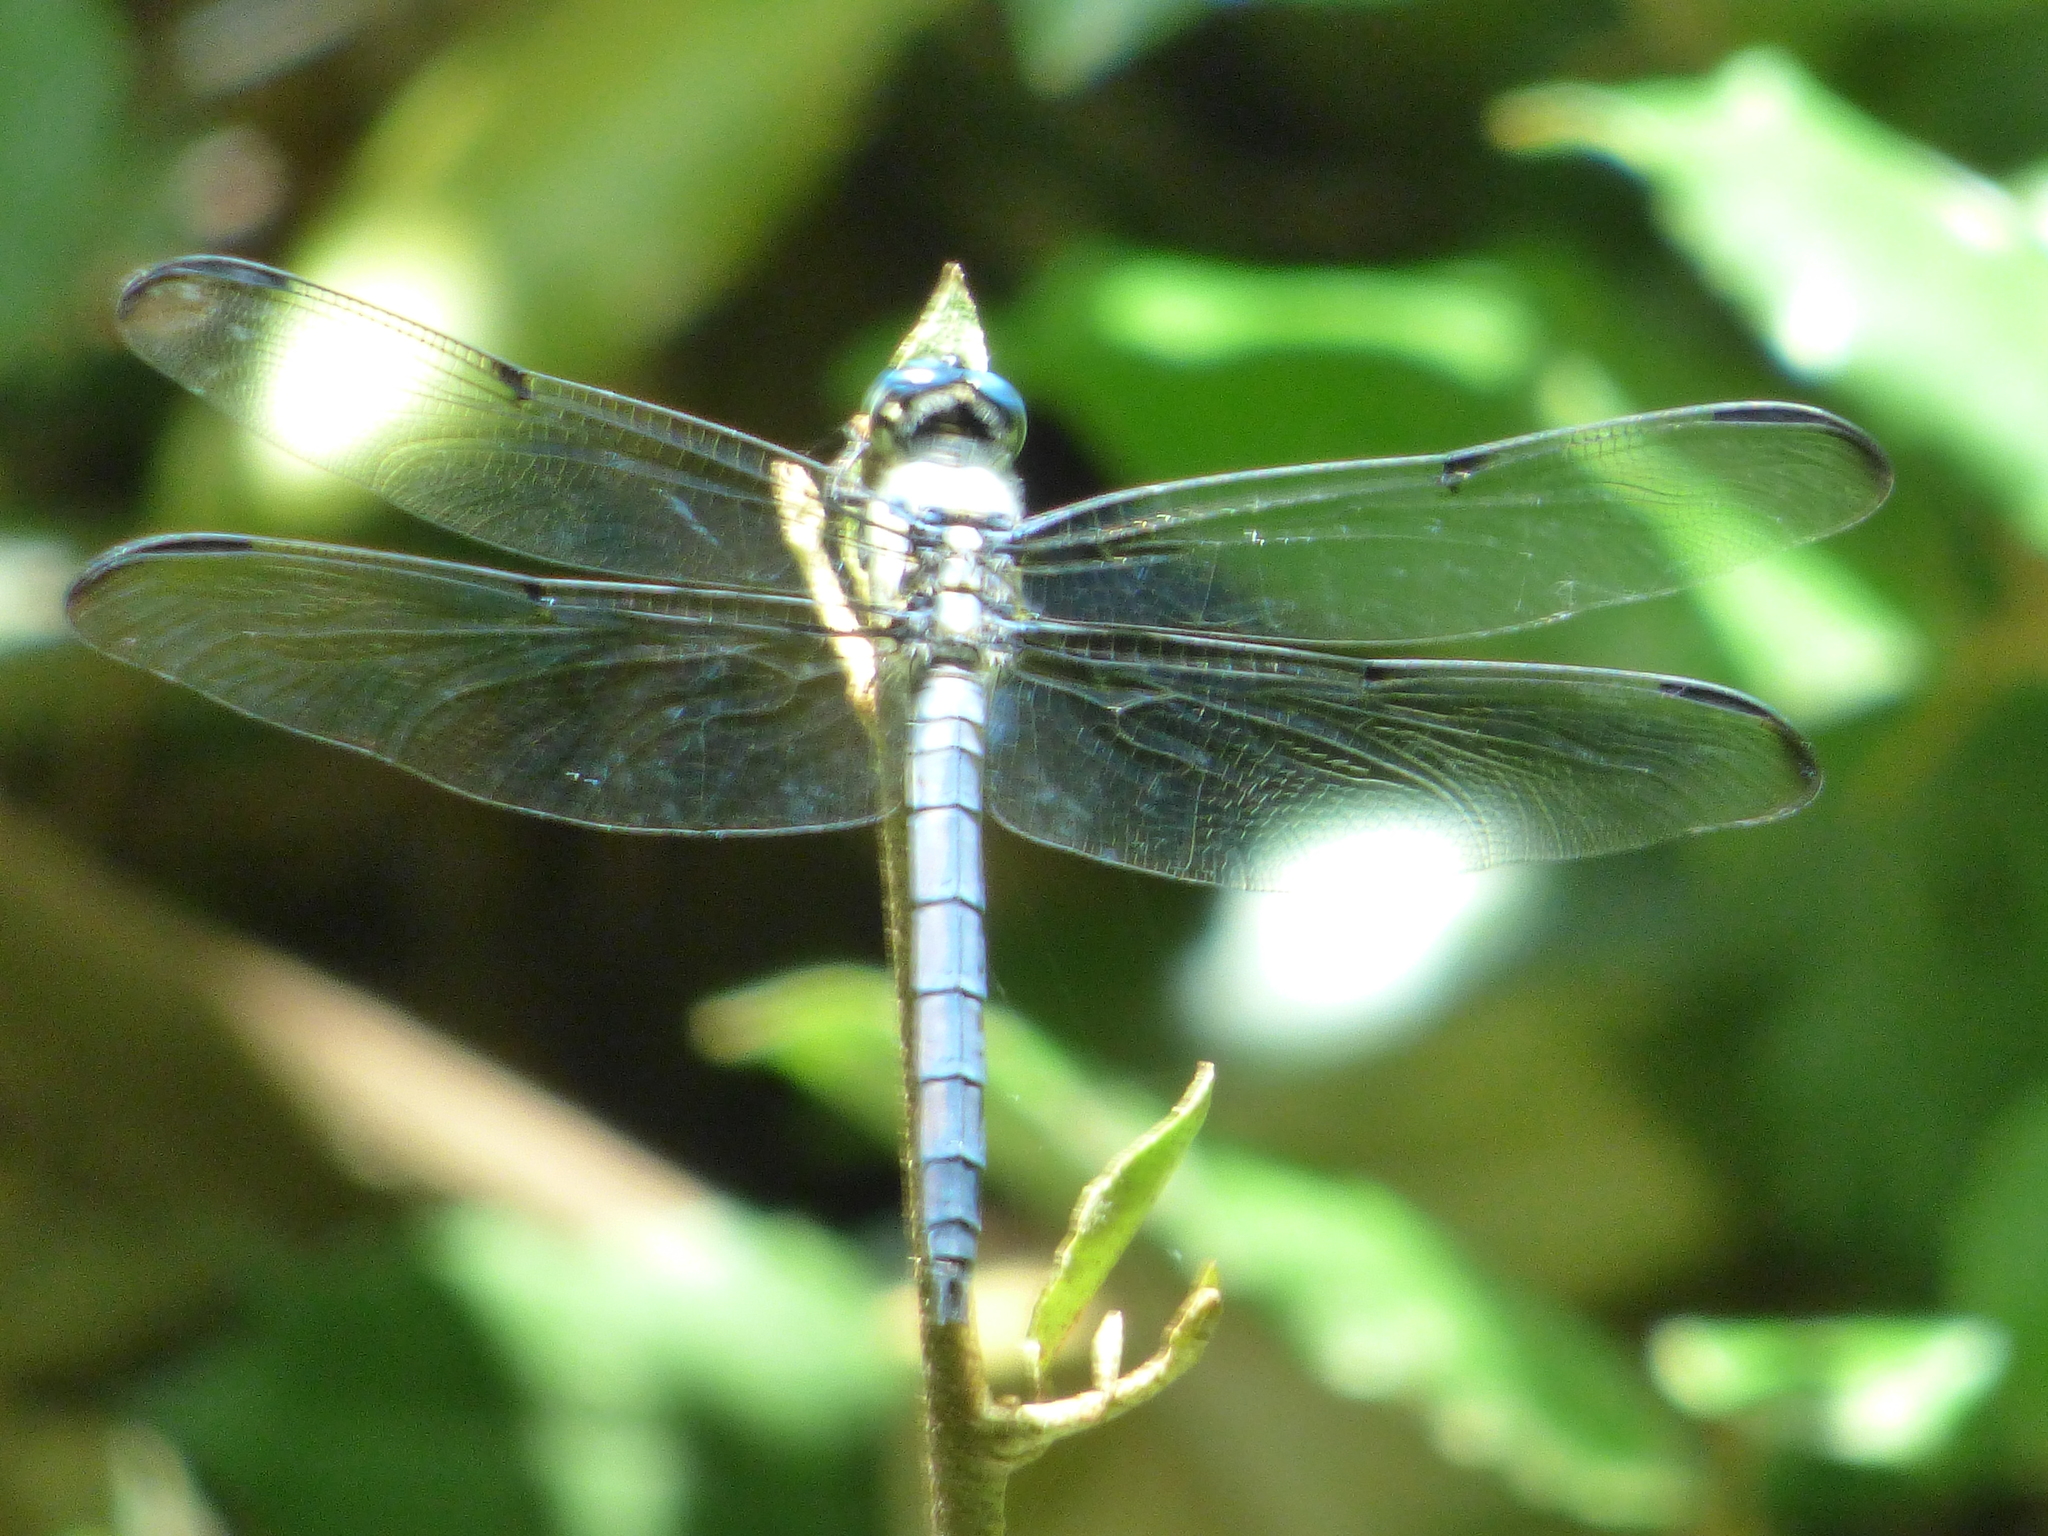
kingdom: Animalia
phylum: Arthropoda
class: Insecta
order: Odonata
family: Libellulidae
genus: Libellula
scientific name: Libellula vibrans
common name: Great blue skimmer
